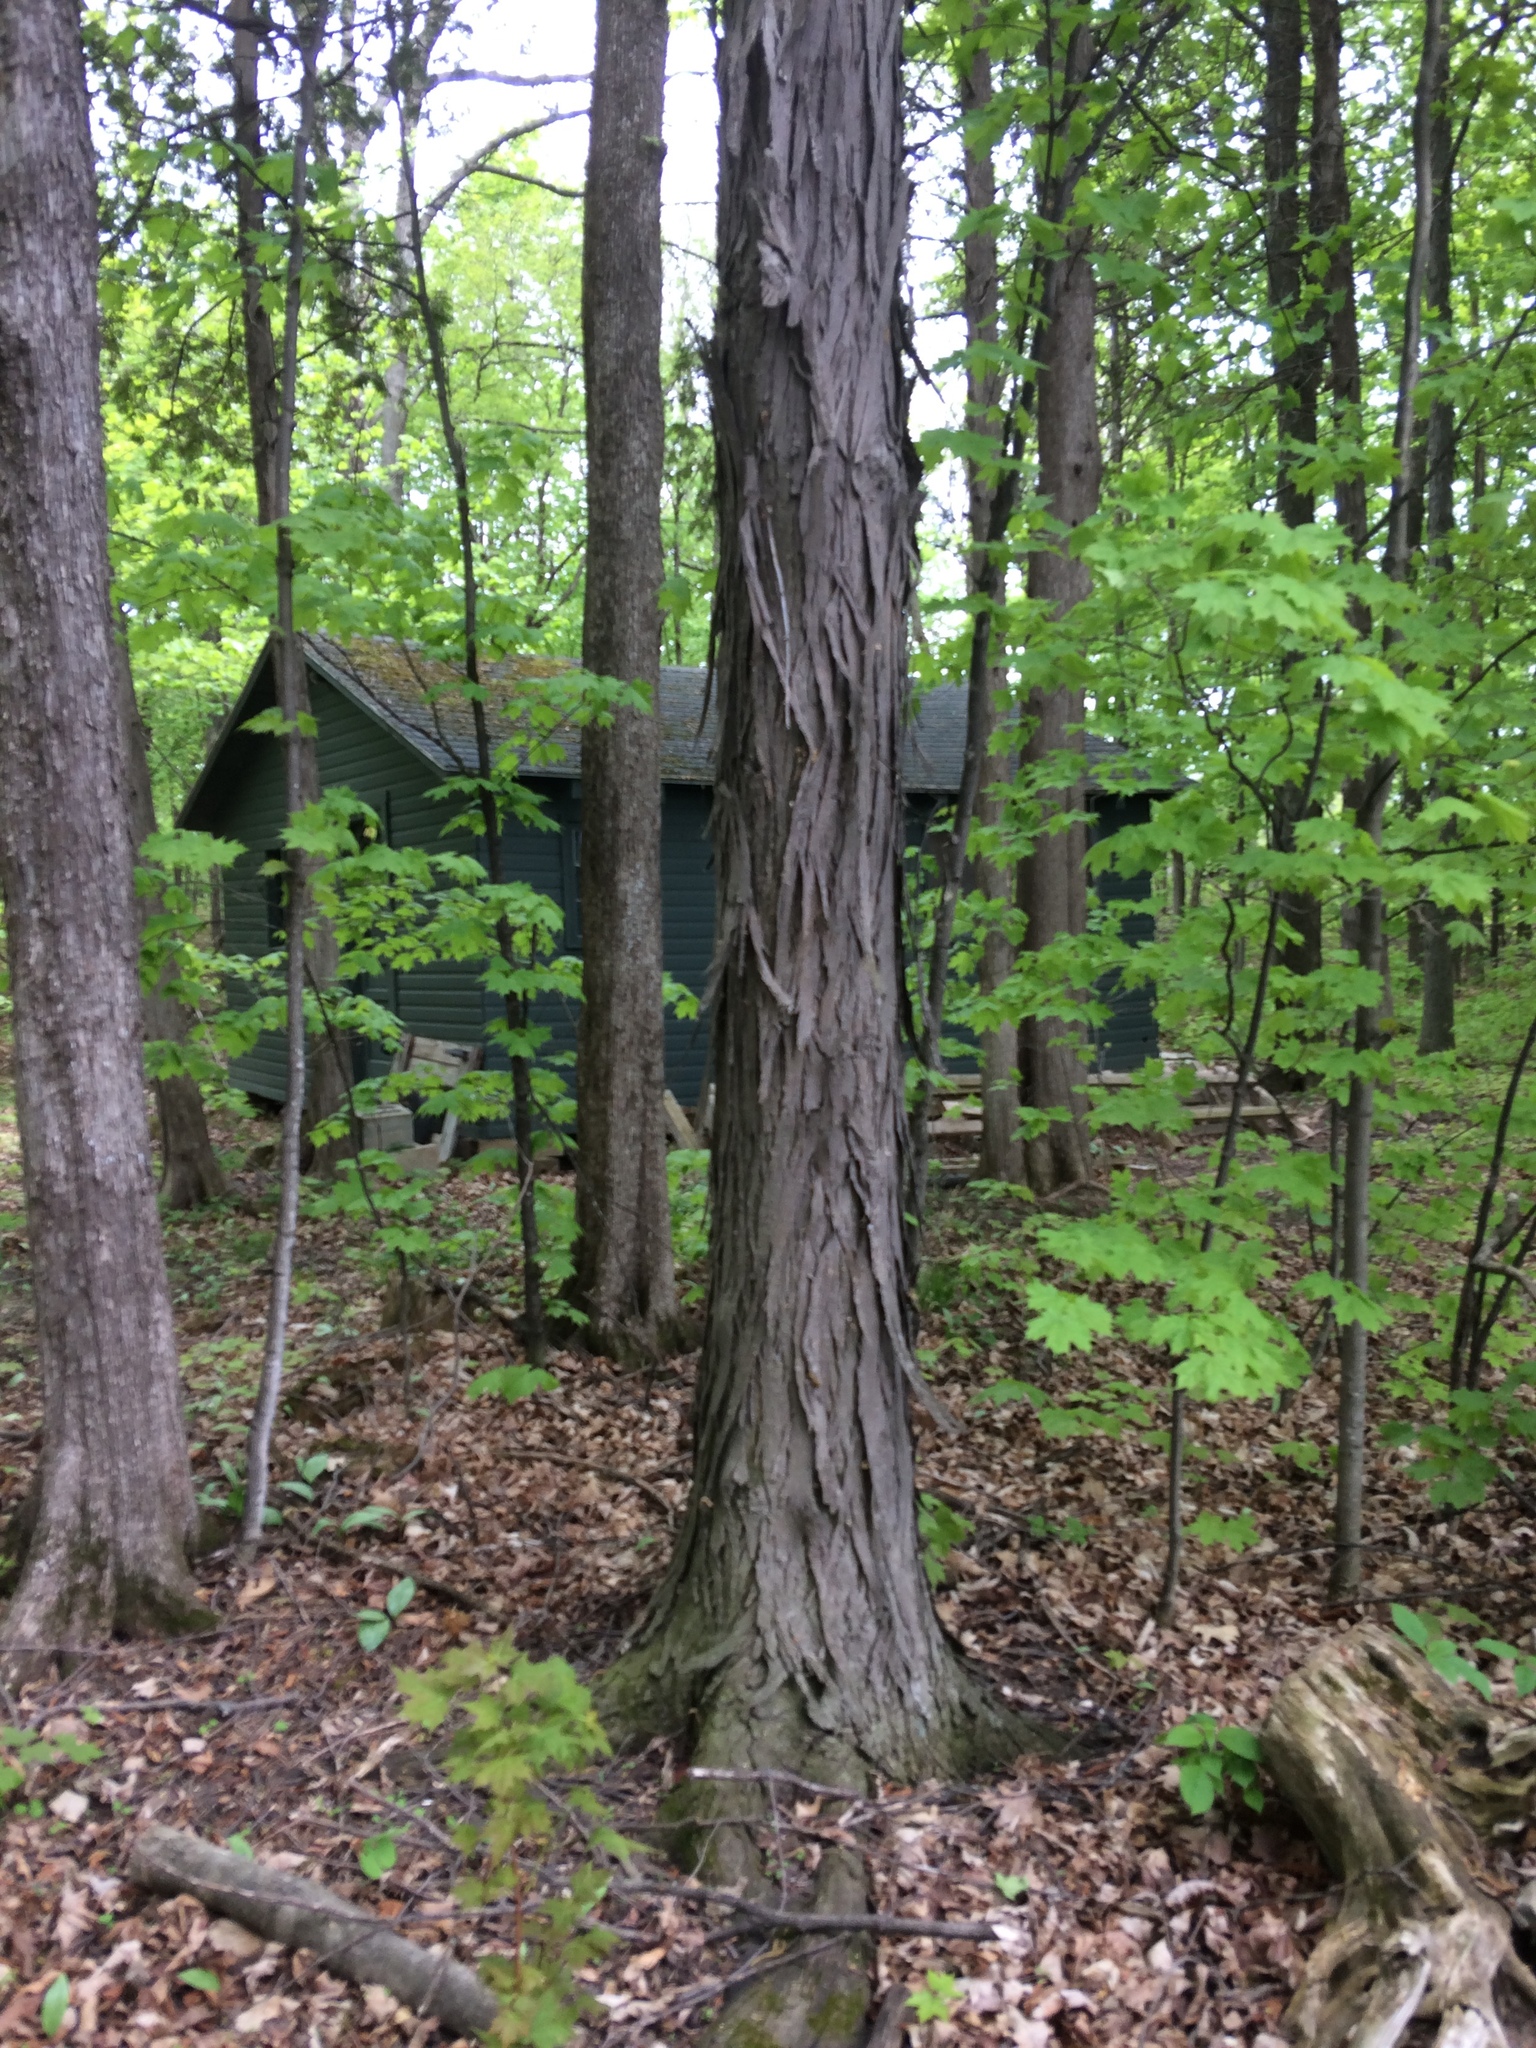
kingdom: Plantae
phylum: Tracheophyta
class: Magnoliopsida
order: Fagales
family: Juglandaceae
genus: Carya
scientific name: Carya ovata
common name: Shagbark hickory
